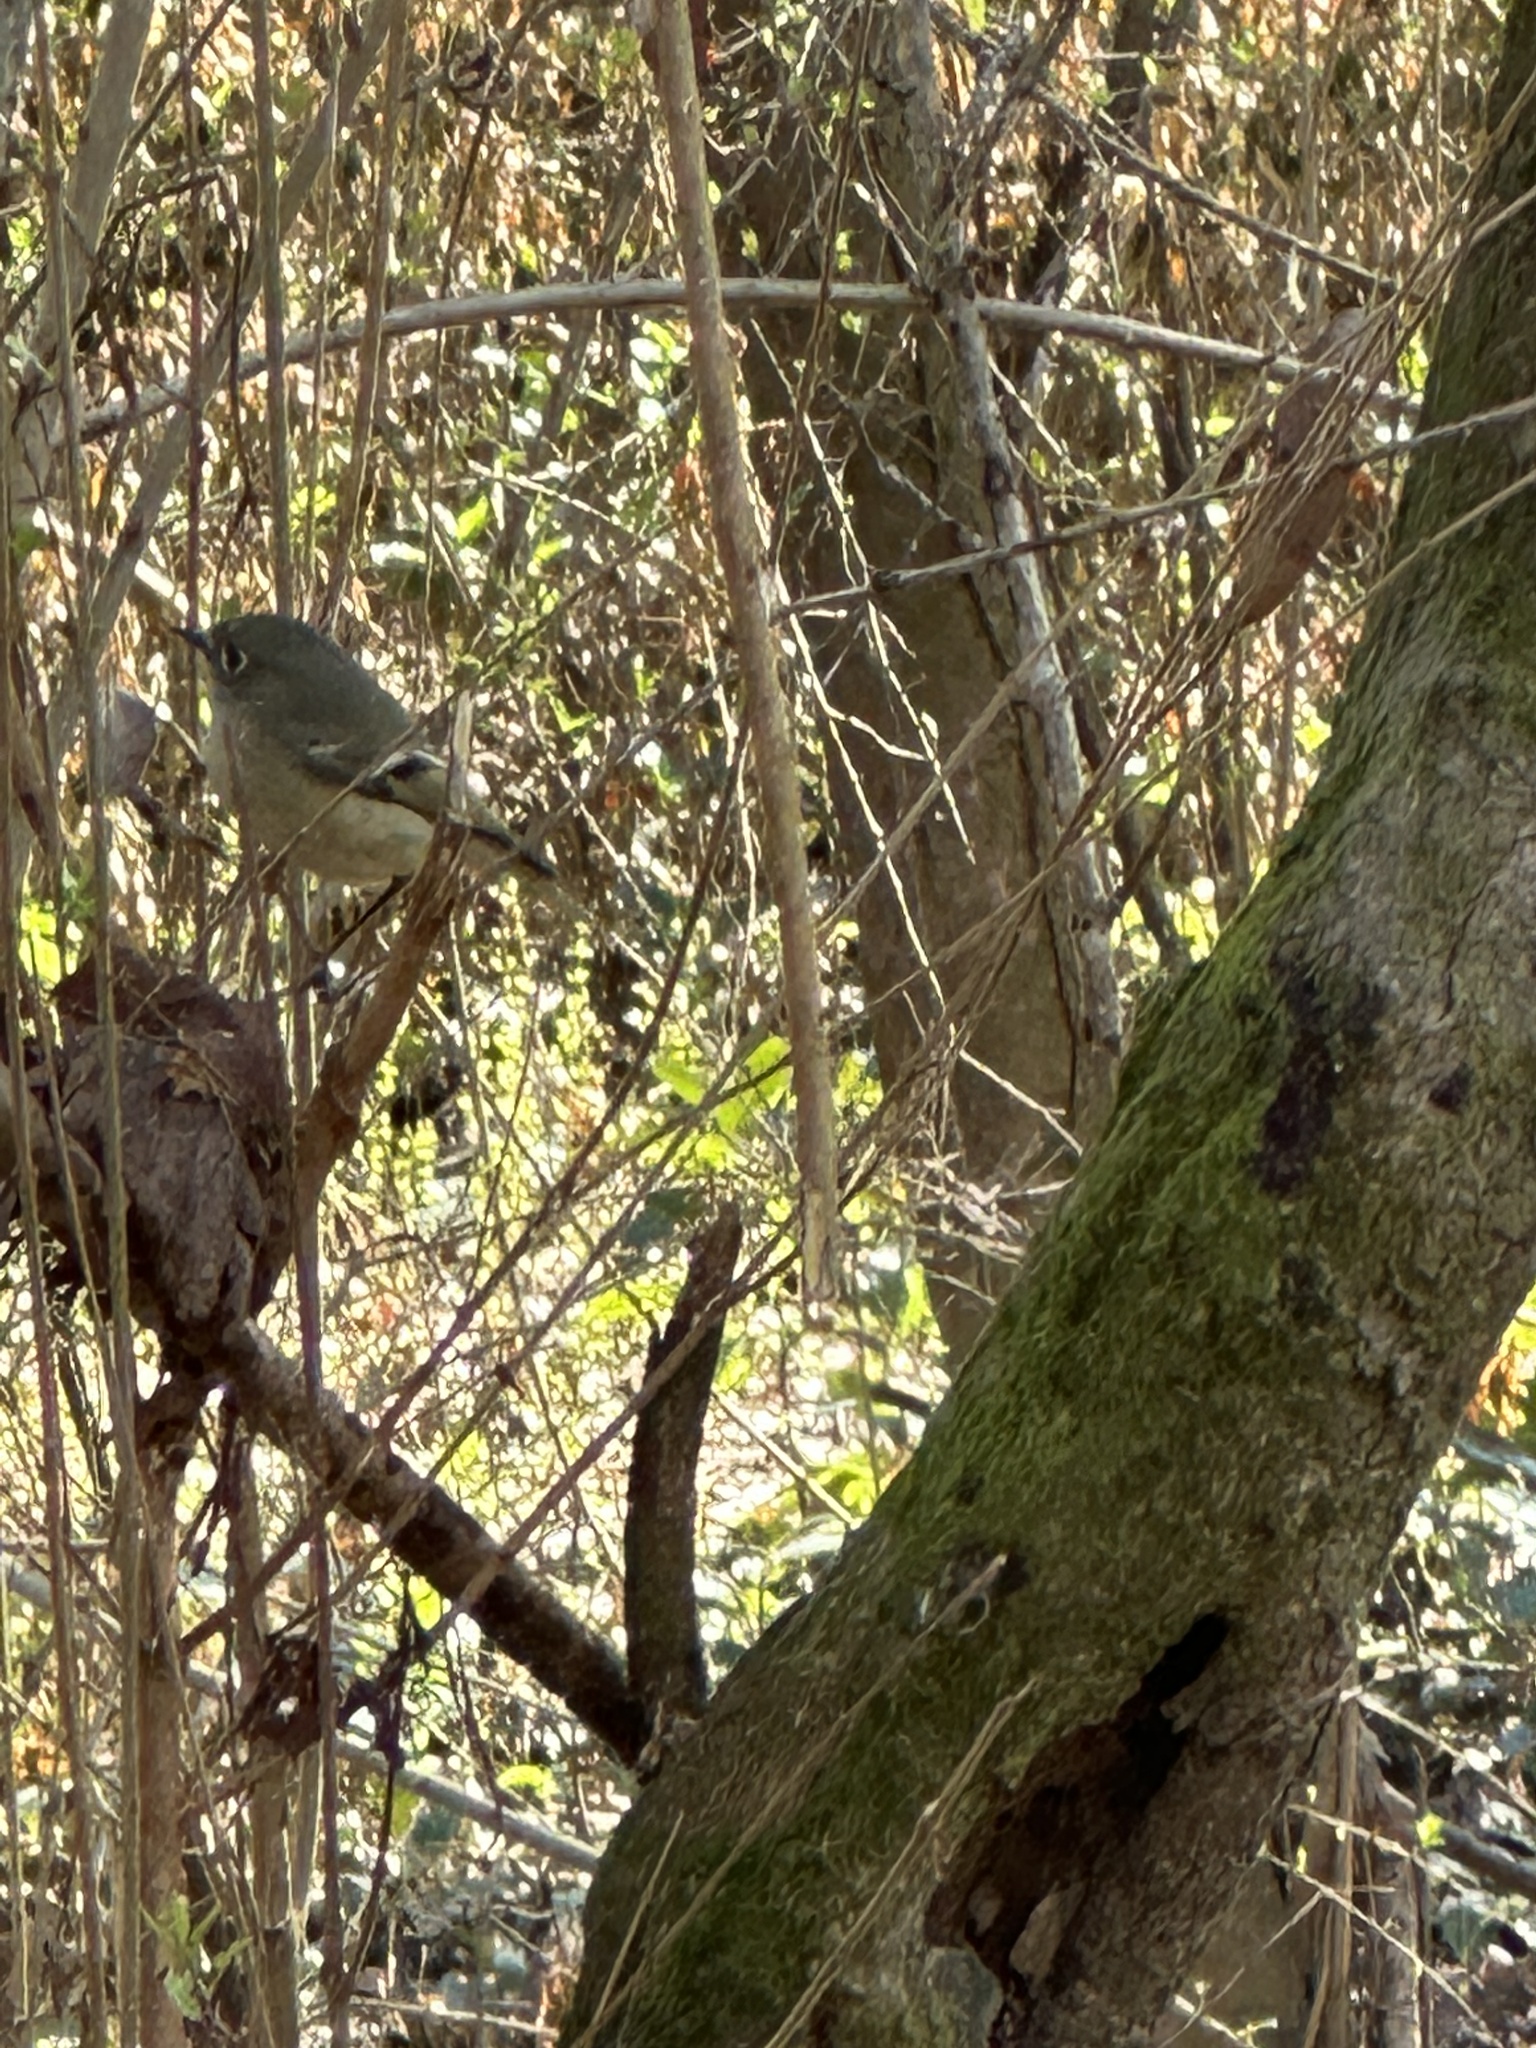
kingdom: Animalia
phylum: Chordata
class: Aves
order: Passeriformes
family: Regulidae
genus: Regulus
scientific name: Regulus calendula
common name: Ruby-crowned kinglet
